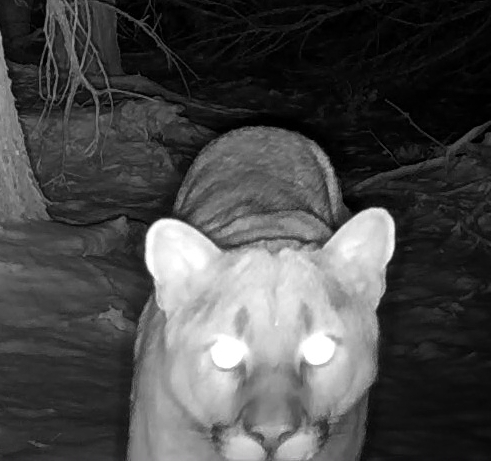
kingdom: Animalia
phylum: Chordata
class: Mammalia
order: Carnivora
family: Felidae
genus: Puma
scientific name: Puma concolor
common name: Puma
